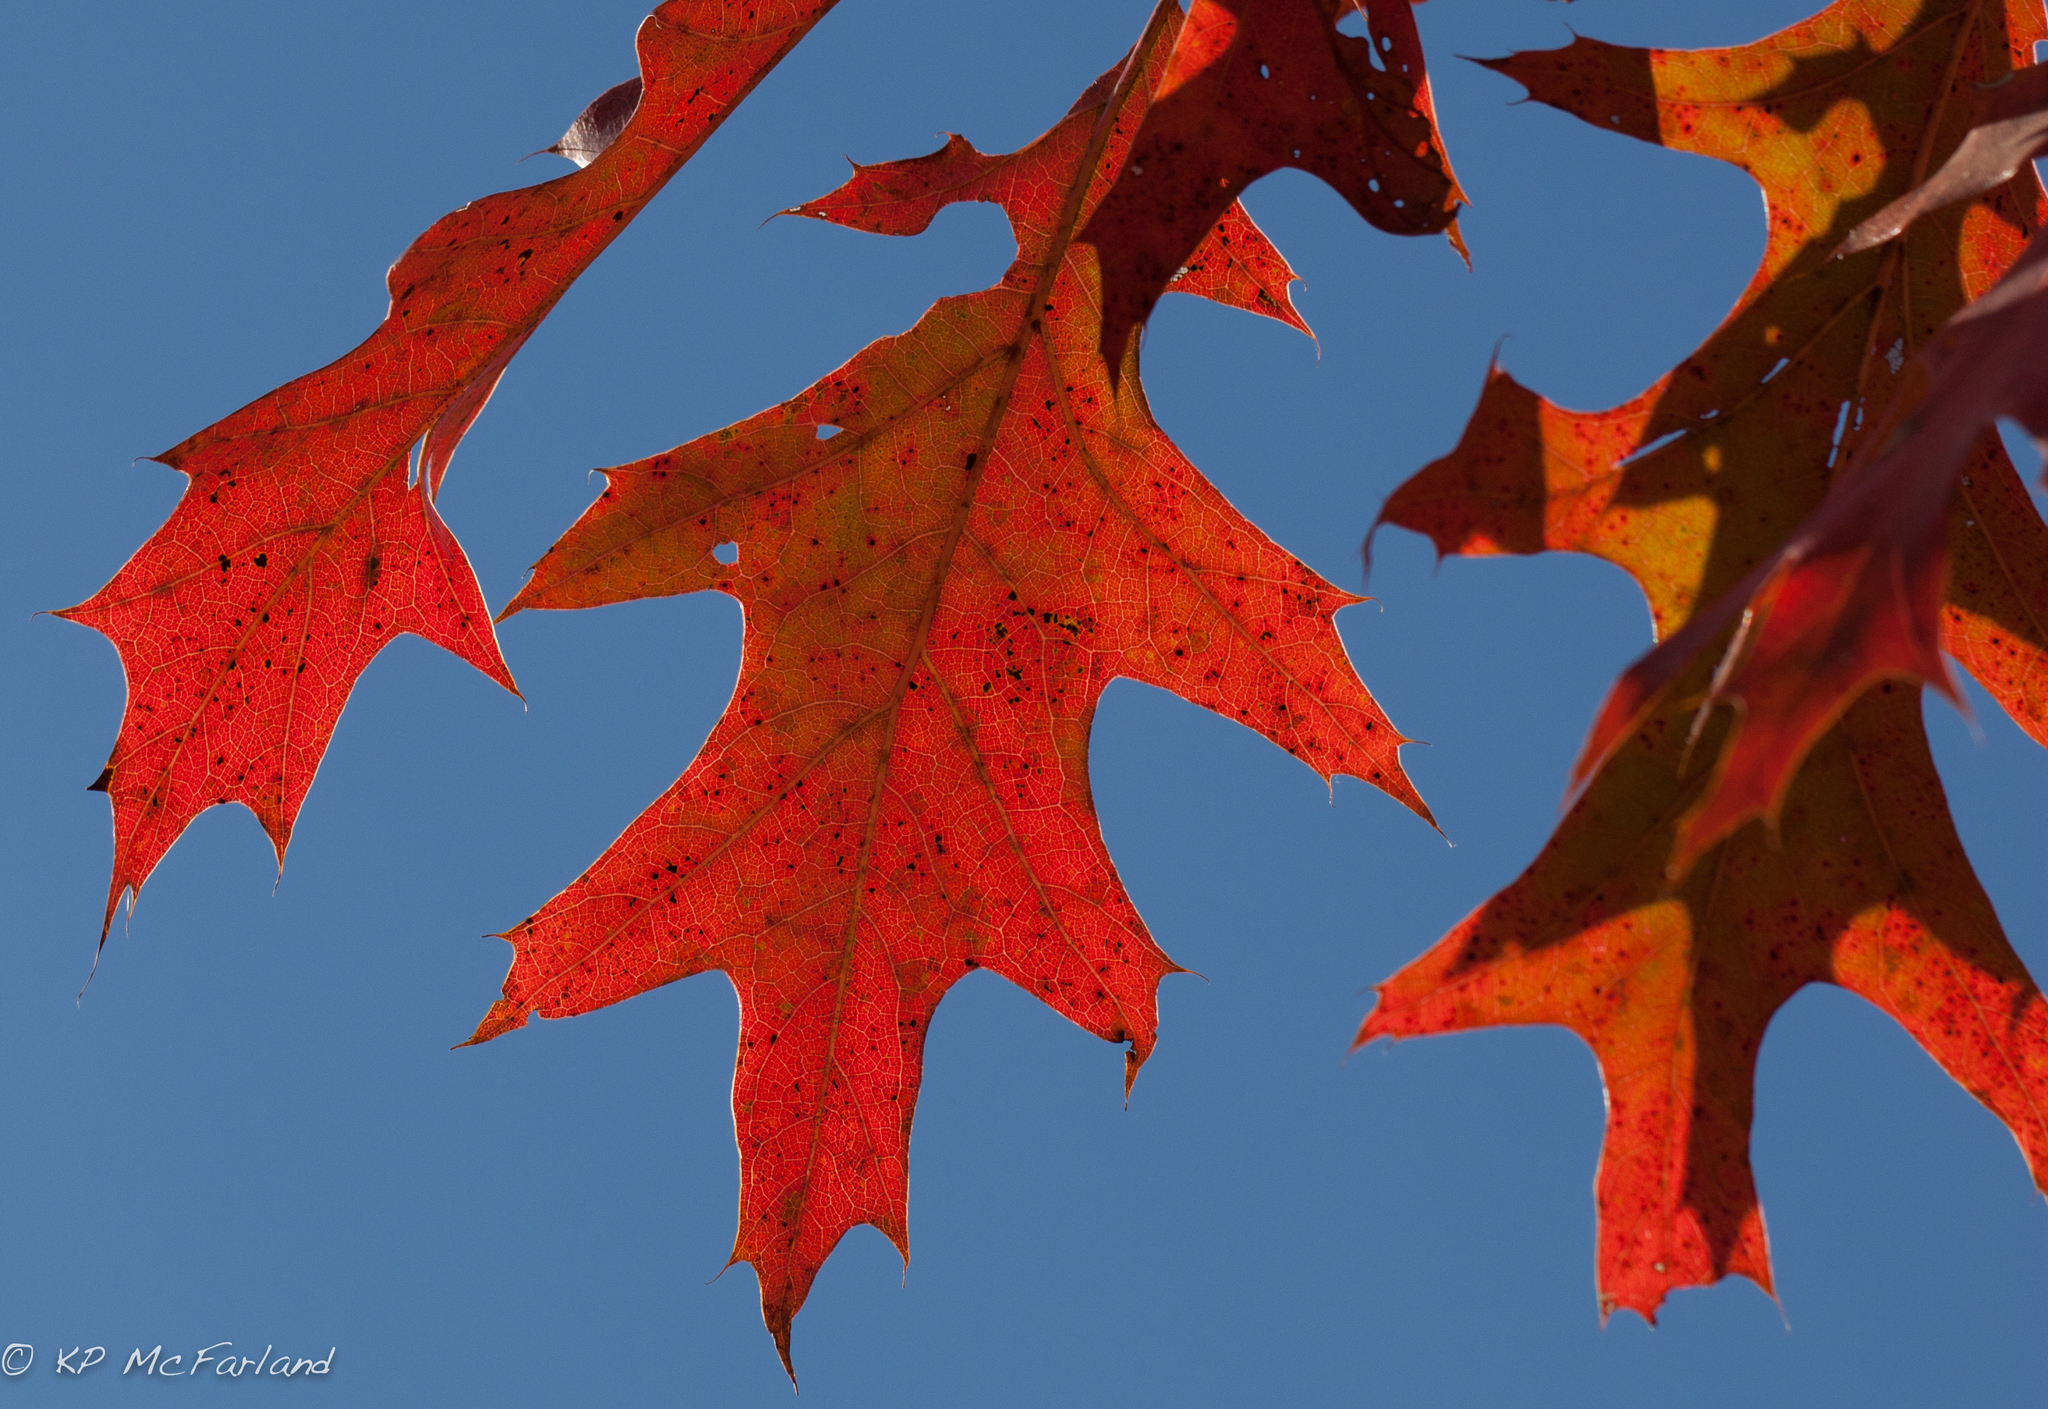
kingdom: Plantae
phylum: Tracheophyta
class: Magnoliopsida
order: Fagales
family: Fagaceae
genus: Quercus
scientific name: Quercus rubra
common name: Red oak
